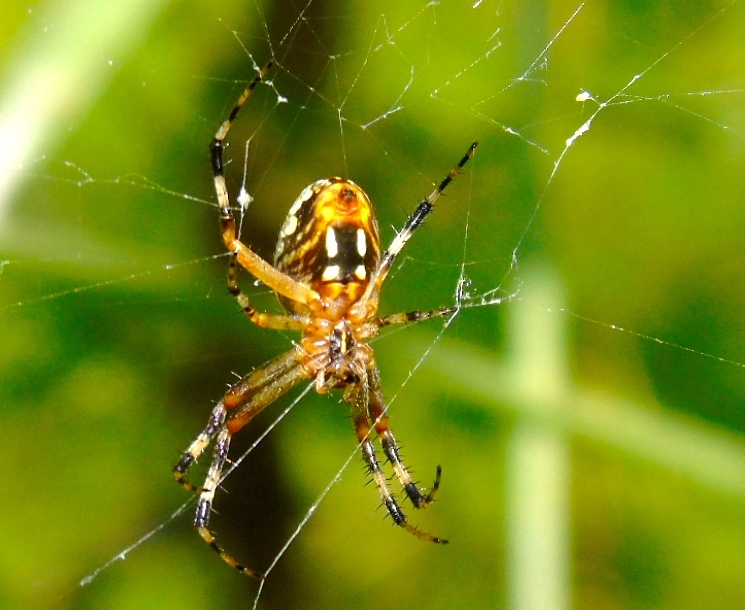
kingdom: Animalia
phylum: Arthropoda
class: Arachnida
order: Araneae
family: Araneidae
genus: Neoscona
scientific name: Neoscona
